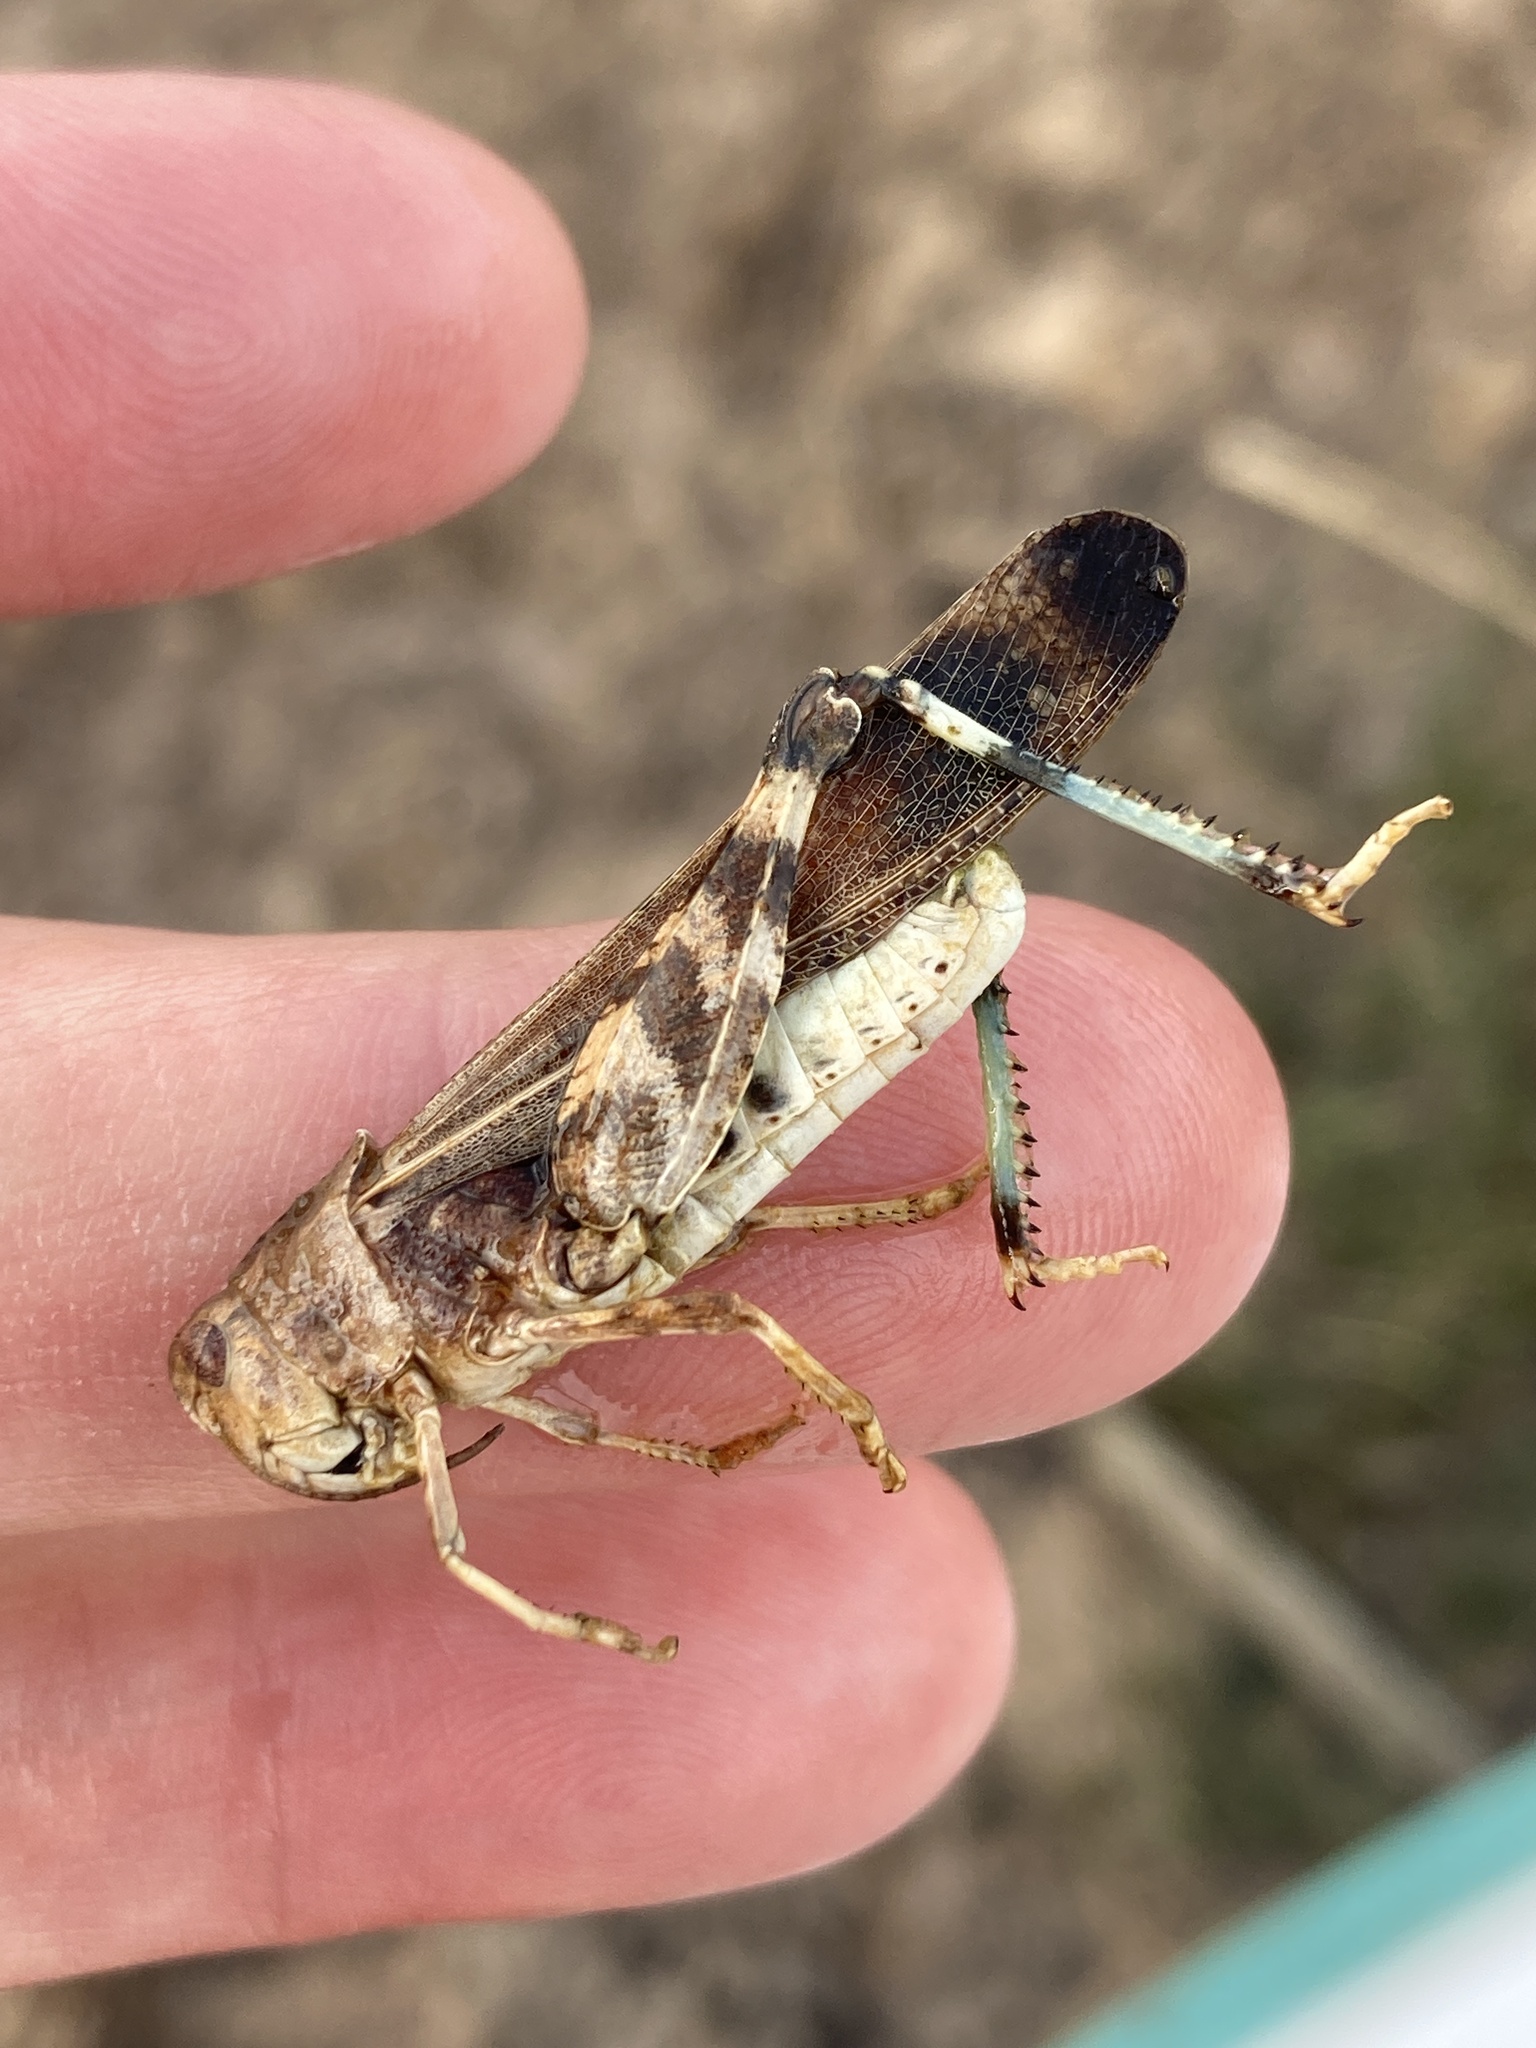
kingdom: Animalia
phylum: Arthropoda
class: Insecta
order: Orthoptera
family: Acrididae
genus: Arphia
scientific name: Arphia simplex
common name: Plains yellow-winged grasshopper
